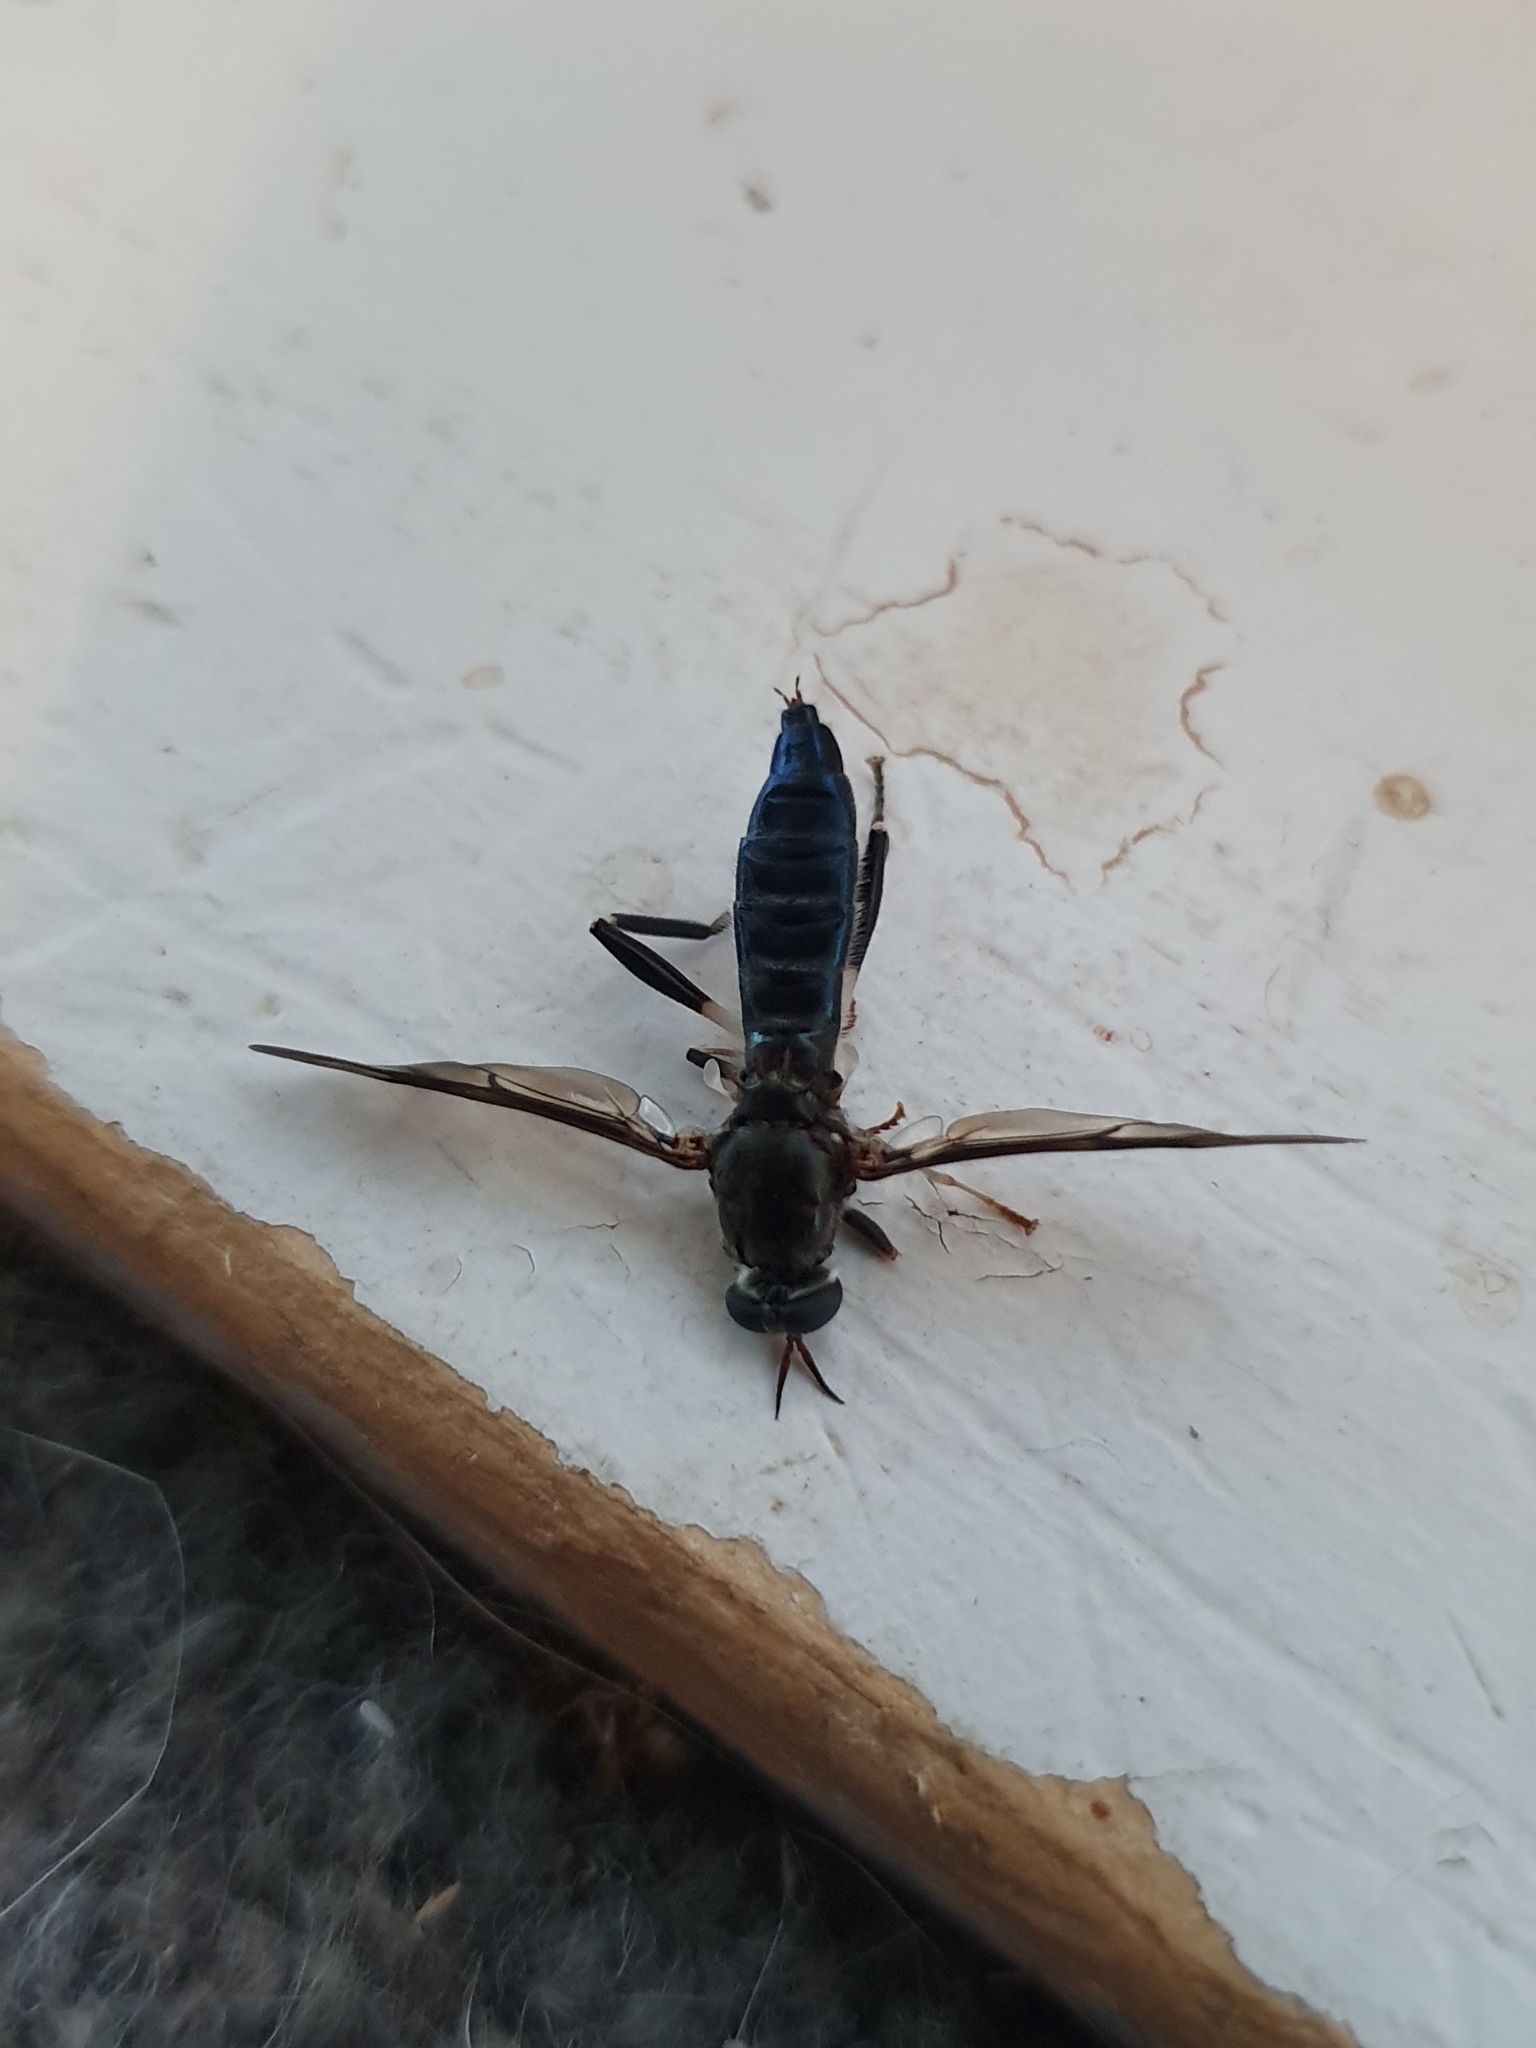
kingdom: Animalia
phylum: Arthropoda
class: Insecta
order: Diptera
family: Stratiomyidae
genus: Exaireta
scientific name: Exaireta spinigera
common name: Blue soldier fly
